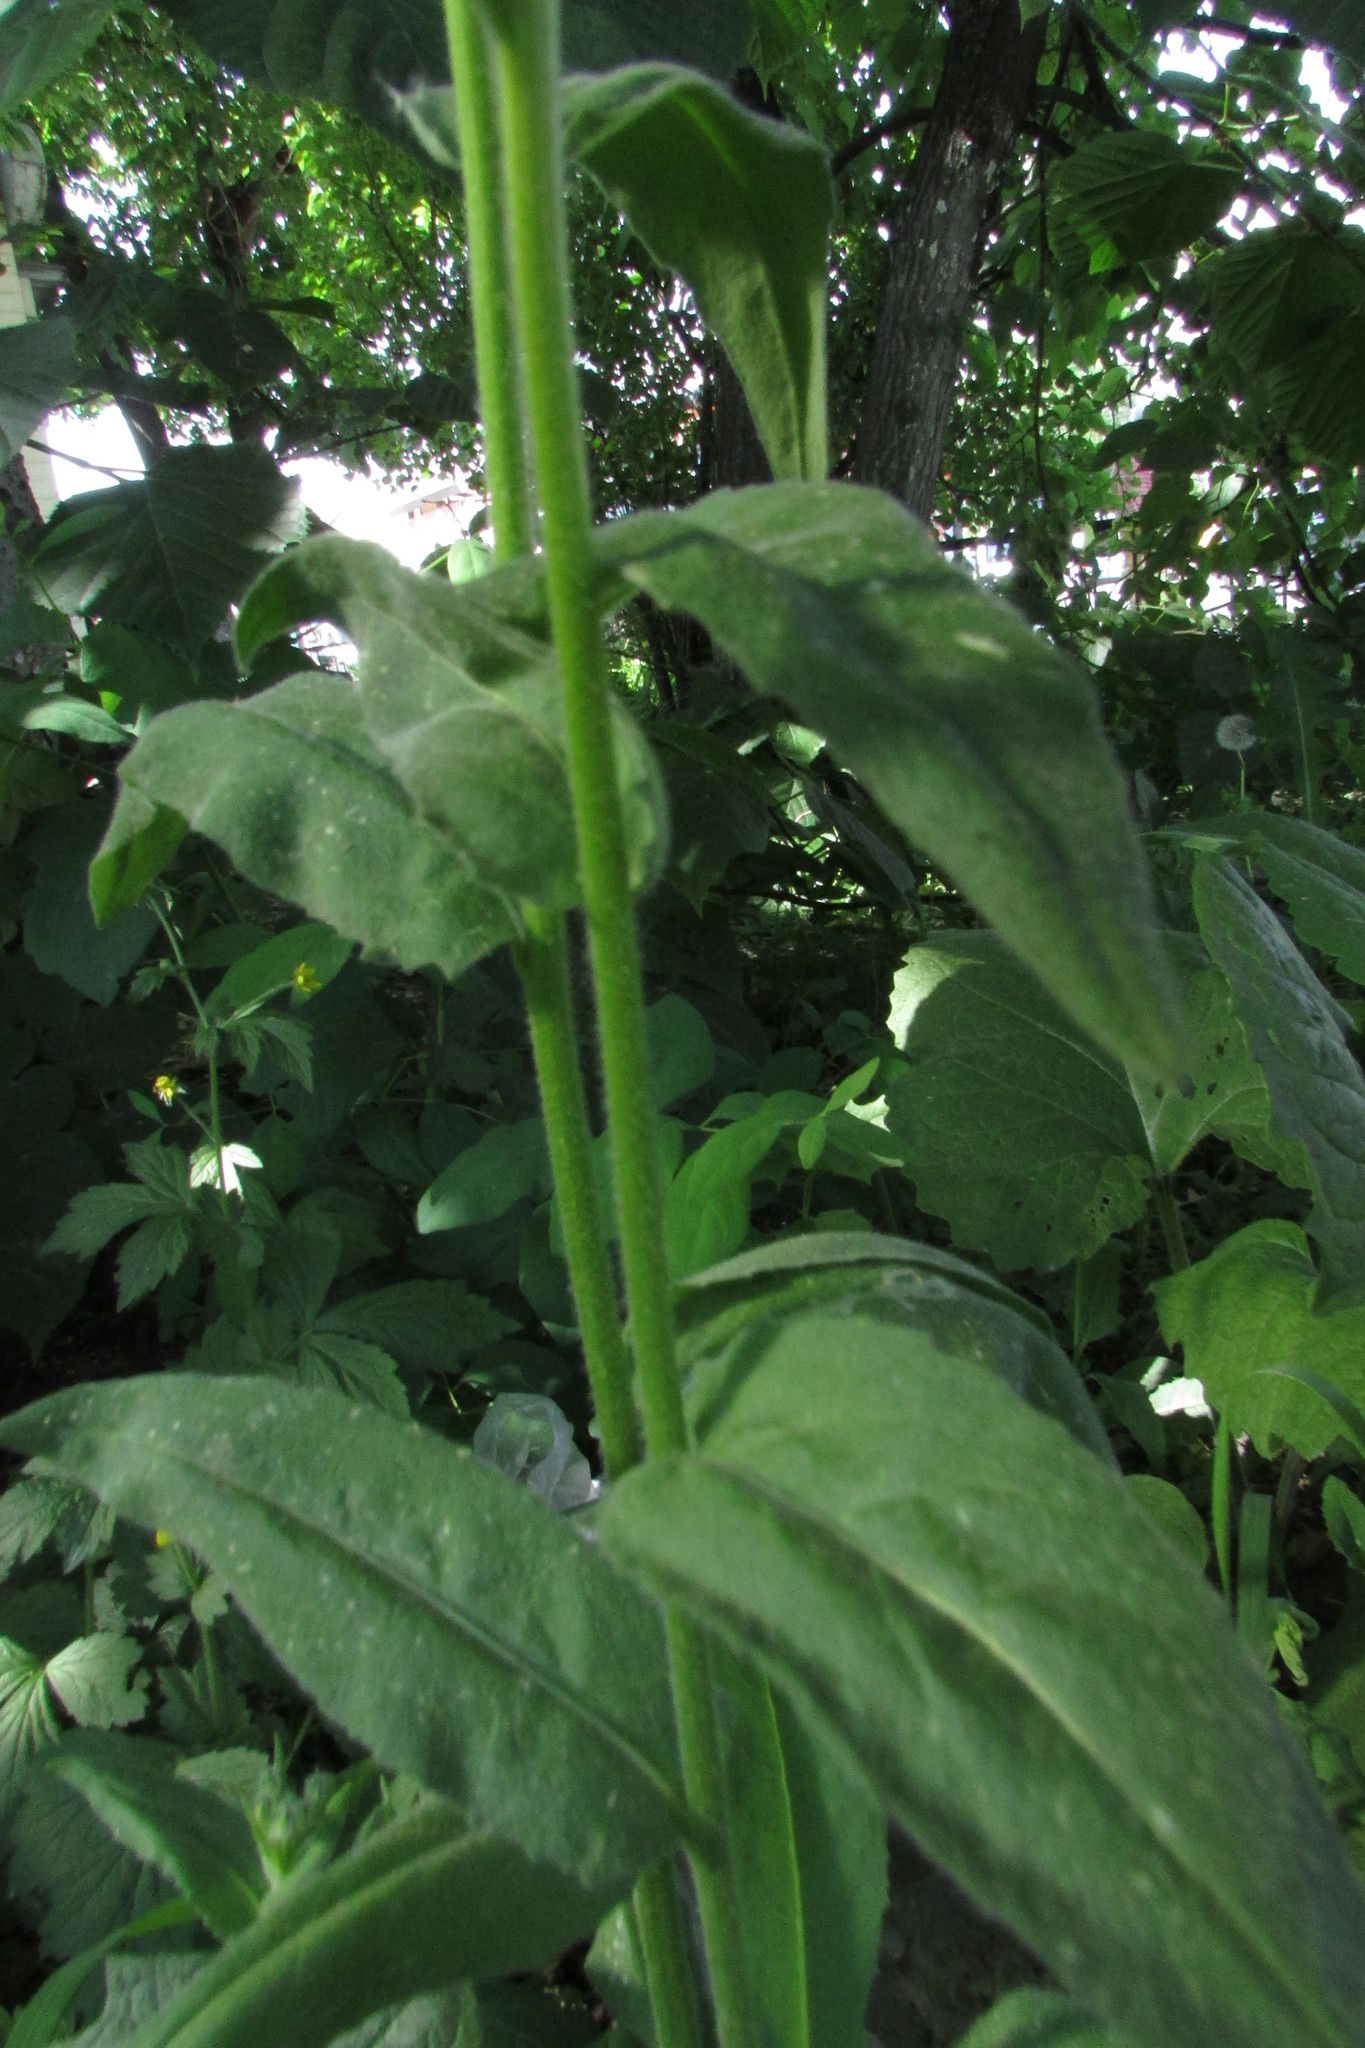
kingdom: Plantae
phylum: Tracheophyta
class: Magnoliopsida
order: Brassicales
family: Brassicaceae
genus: Hesperis
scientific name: Hesperis matronalis
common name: Dame's-violet
